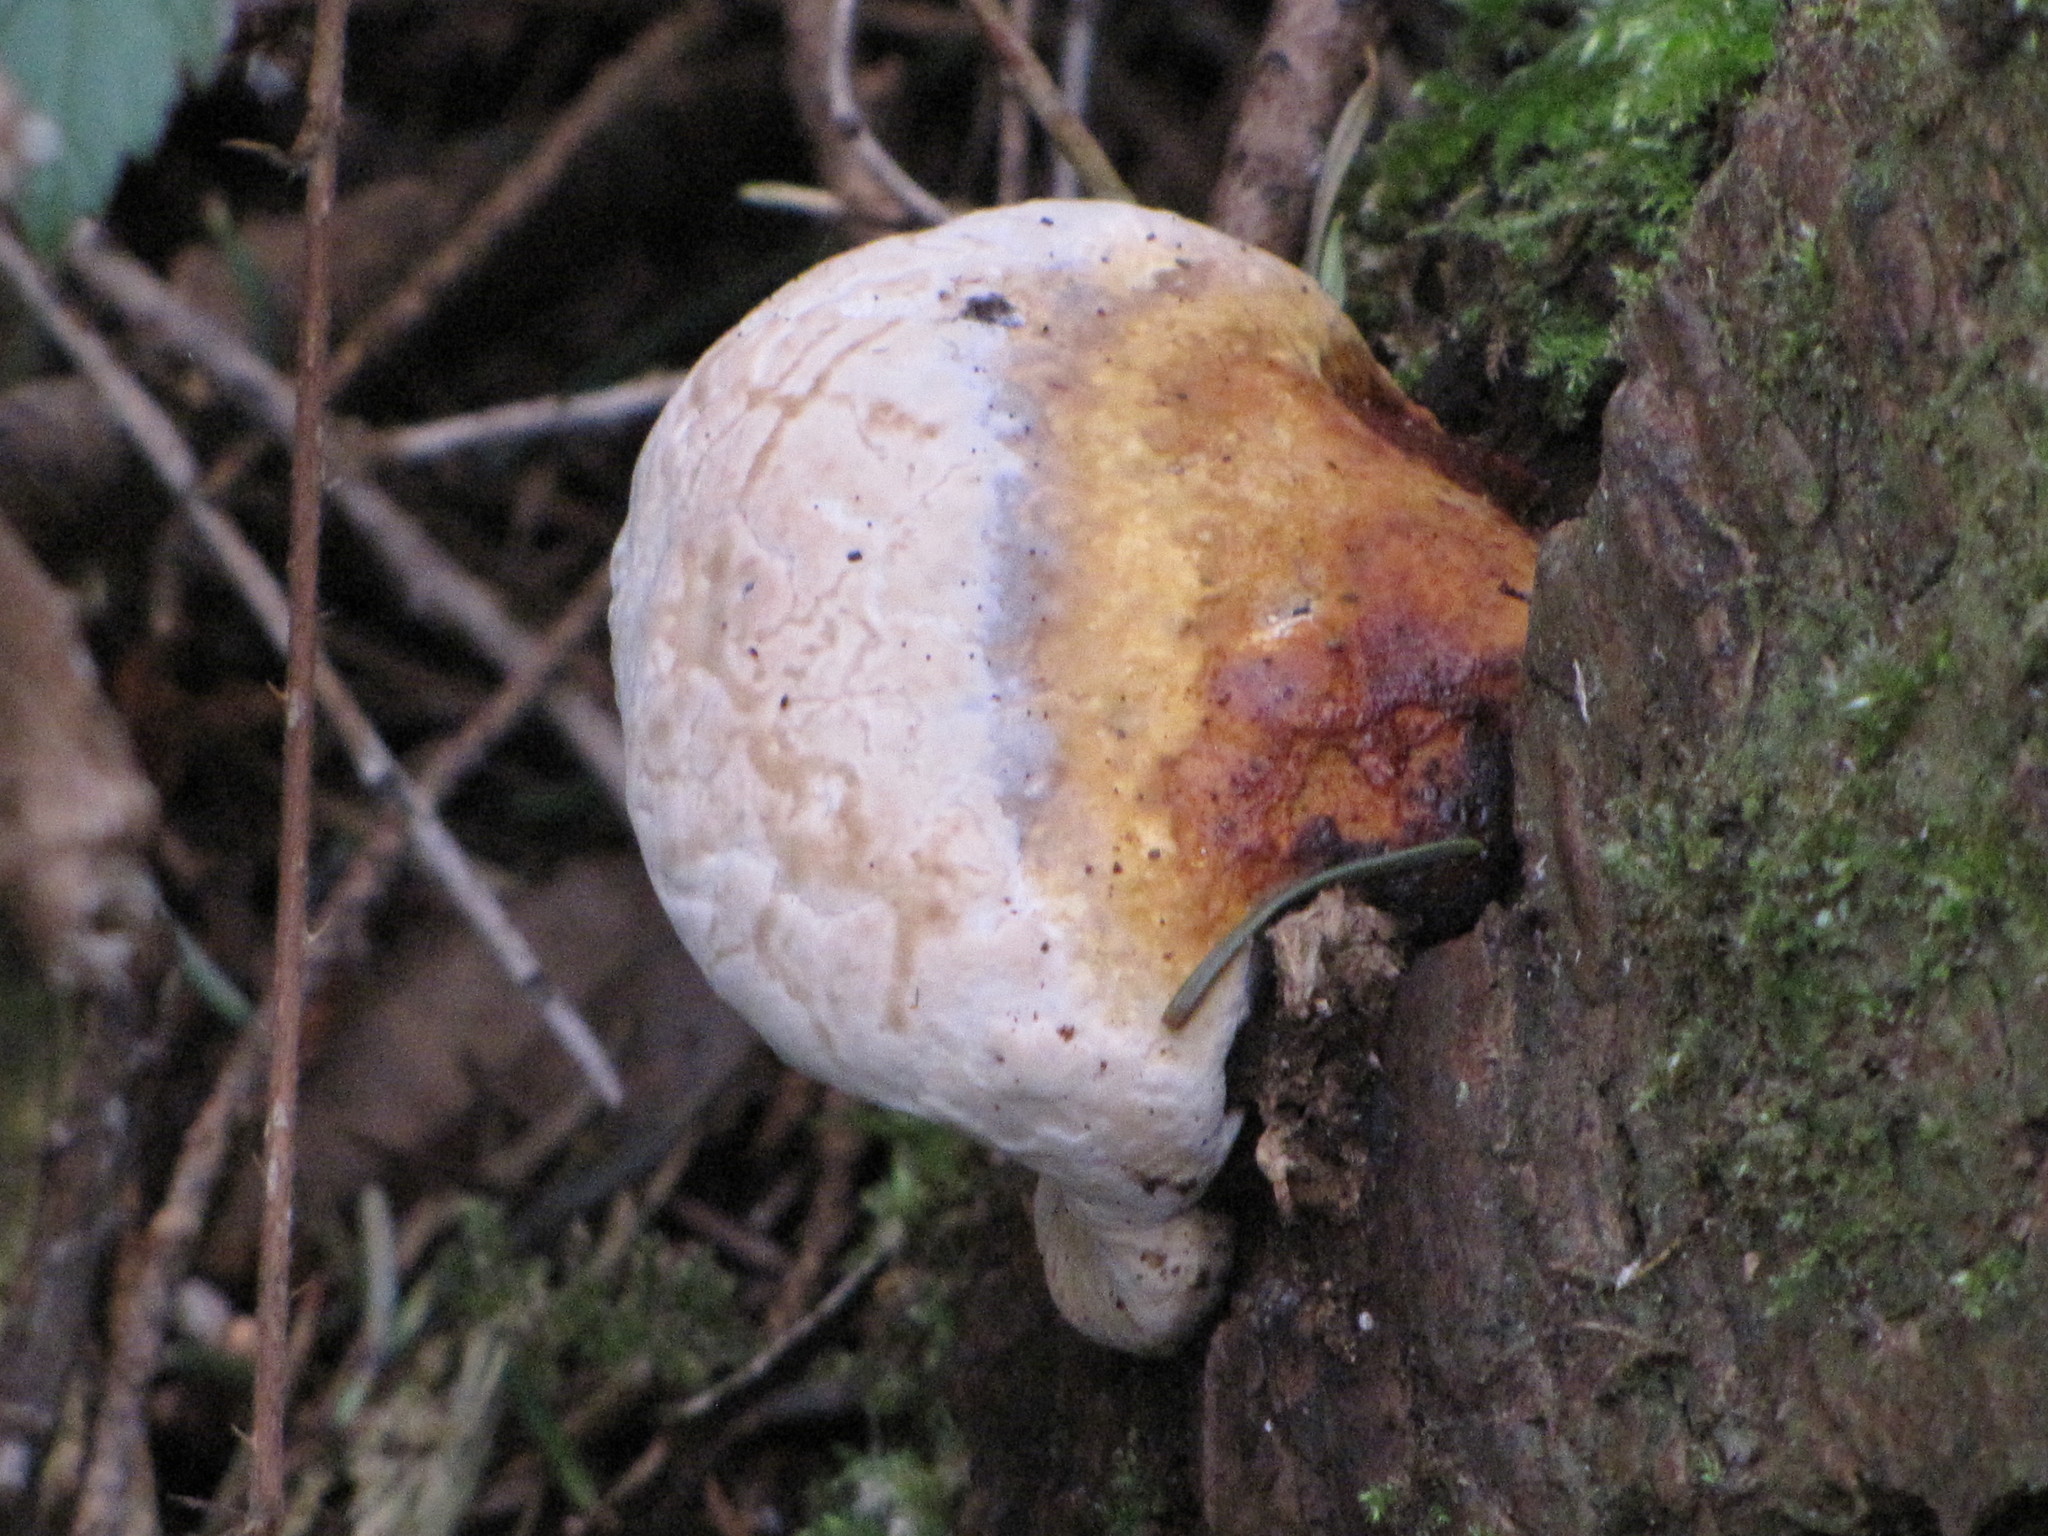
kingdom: Fungi
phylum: Basidiomycota
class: Agaricomycetes
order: Polyporales
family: Fomitopsidaceae
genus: Fomitopsis
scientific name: Fomitopsis mounceae
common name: Northern red belt
